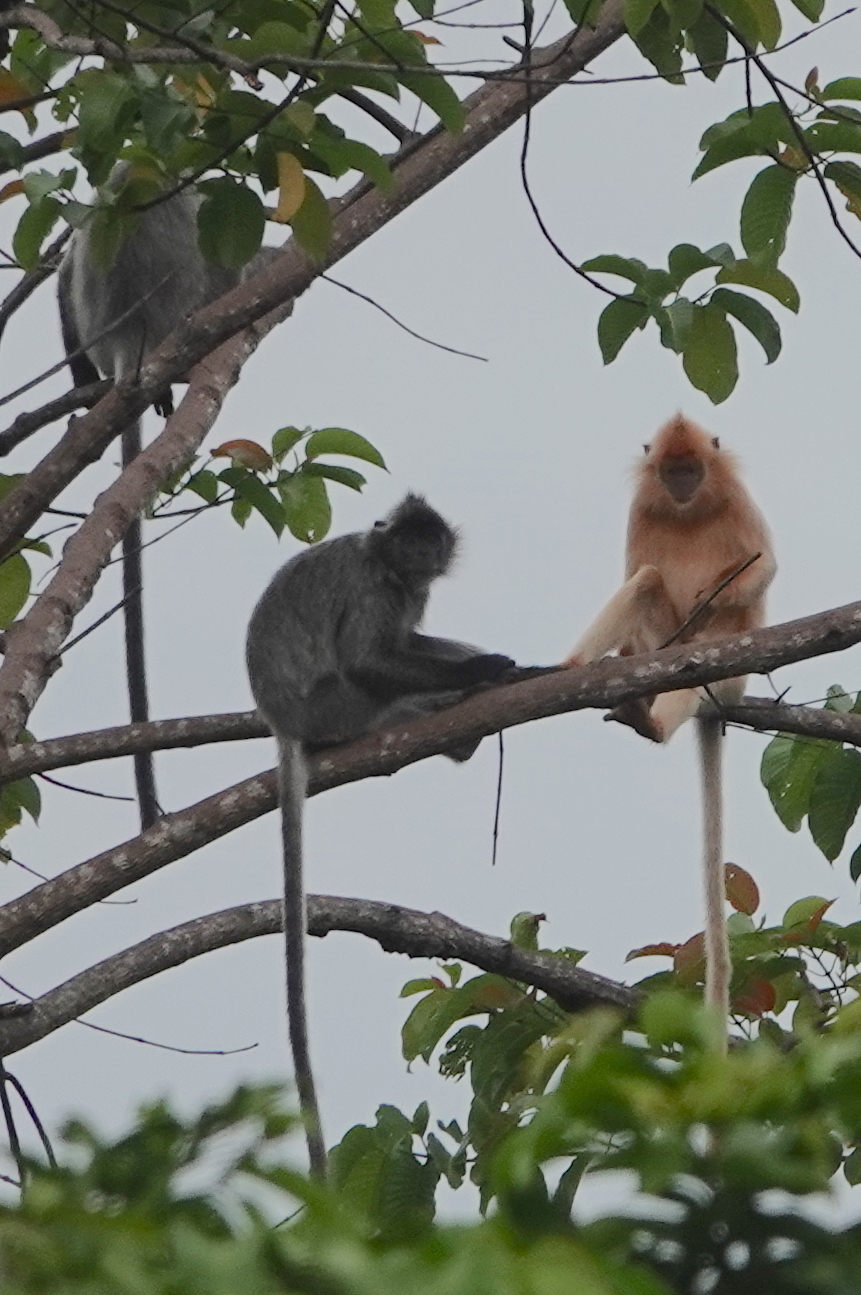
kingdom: Animalia
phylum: Chordata
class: Mammalia
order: Primates
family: Cercopithecidae
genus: Trachypithecus
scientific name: Trachypithecus cristatus
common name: Silvery lutung
